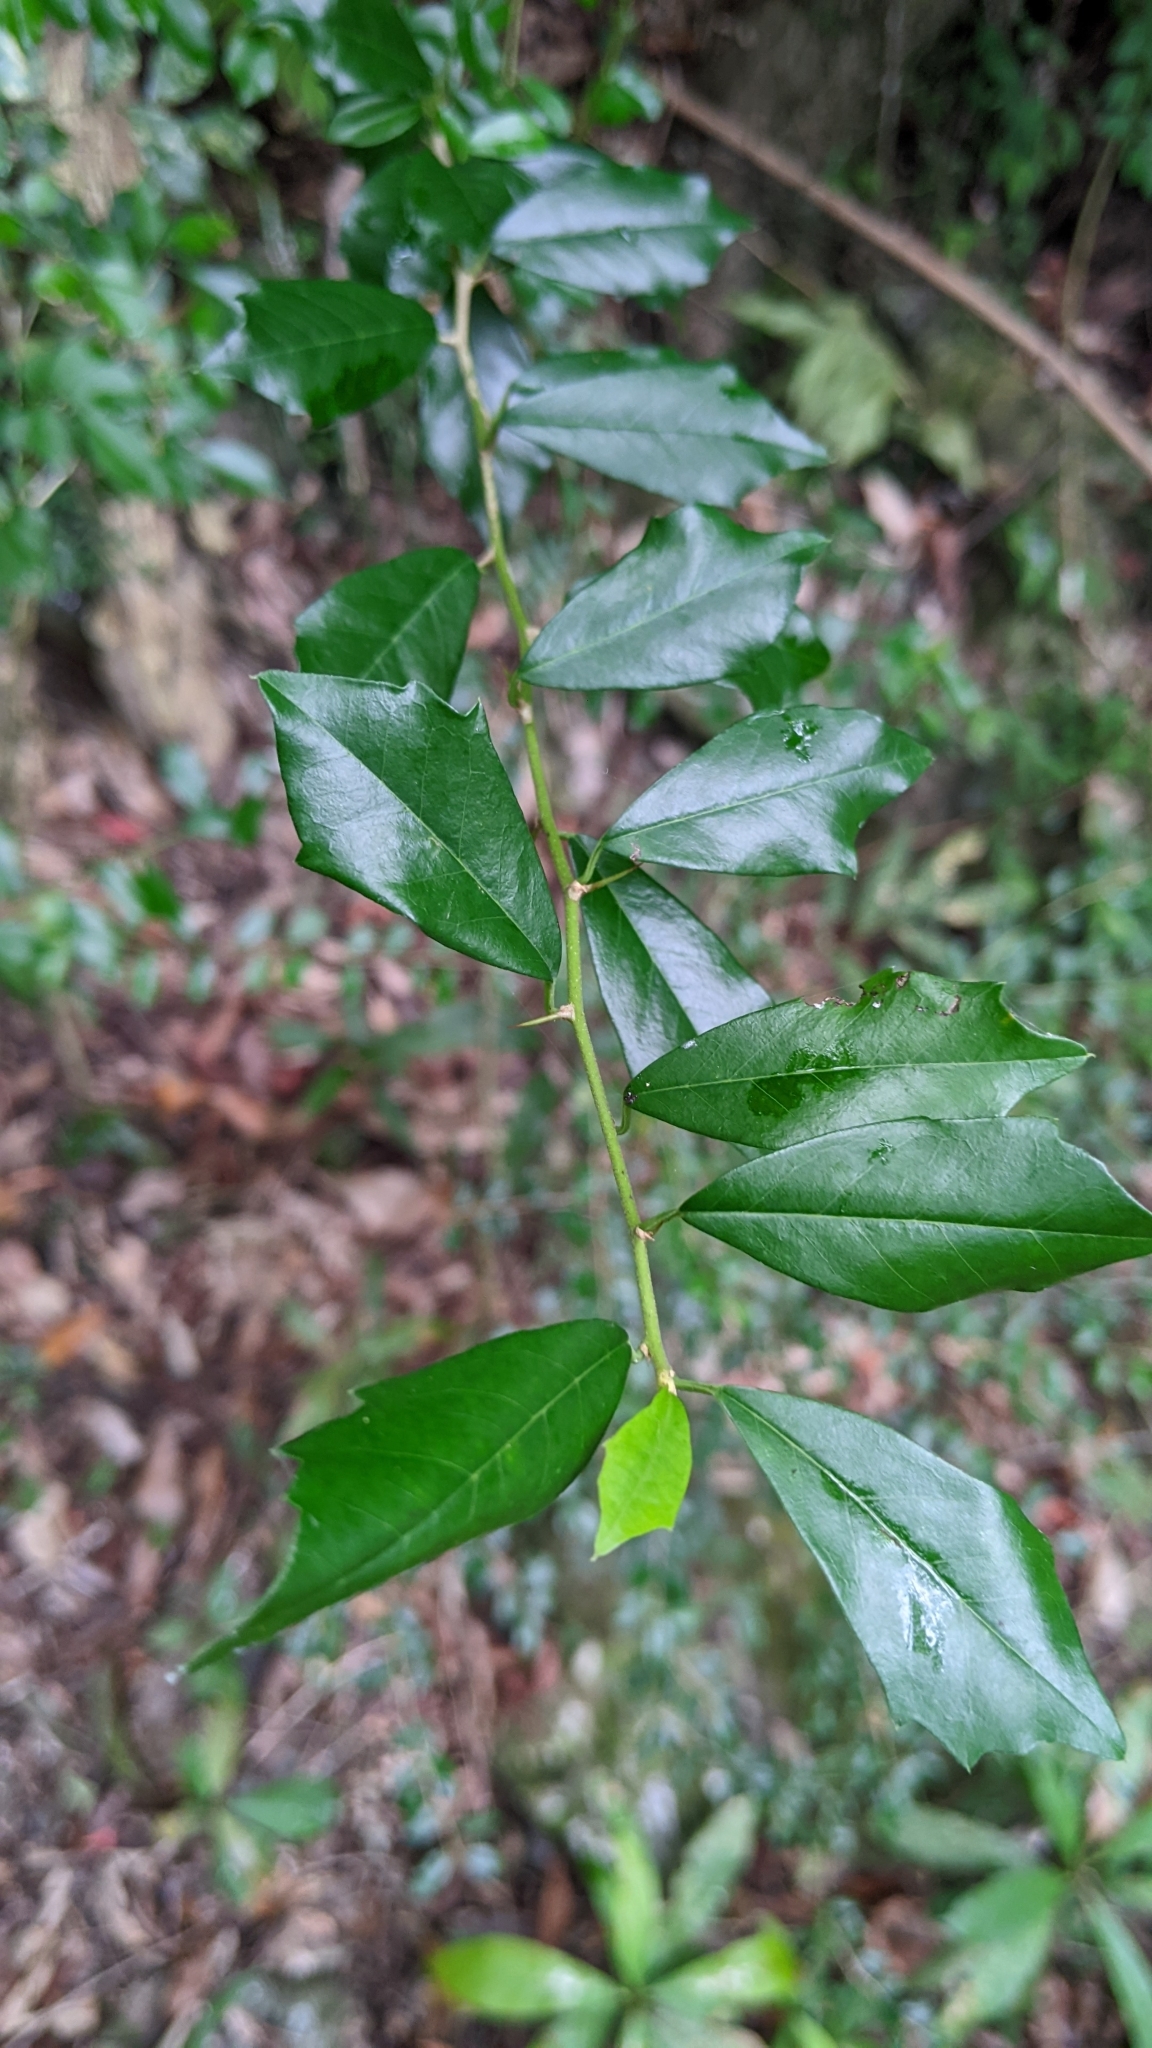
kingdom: Plantae
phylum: Tracheophyta
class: Magnoliopsida
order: Rosales
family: Moraceae
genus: Maclura
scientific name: Maclura cochinchinensis
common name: Cockspurthorn
